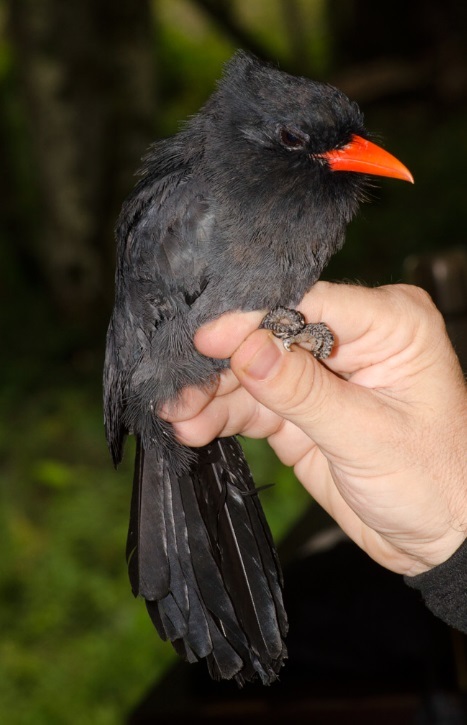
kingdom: Animalia
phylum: Chordata
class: Aves
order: Piciformes
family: Bucconidae
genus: Monasa
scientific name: Monasa nigrifrons
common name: Black-fronted nunbird
